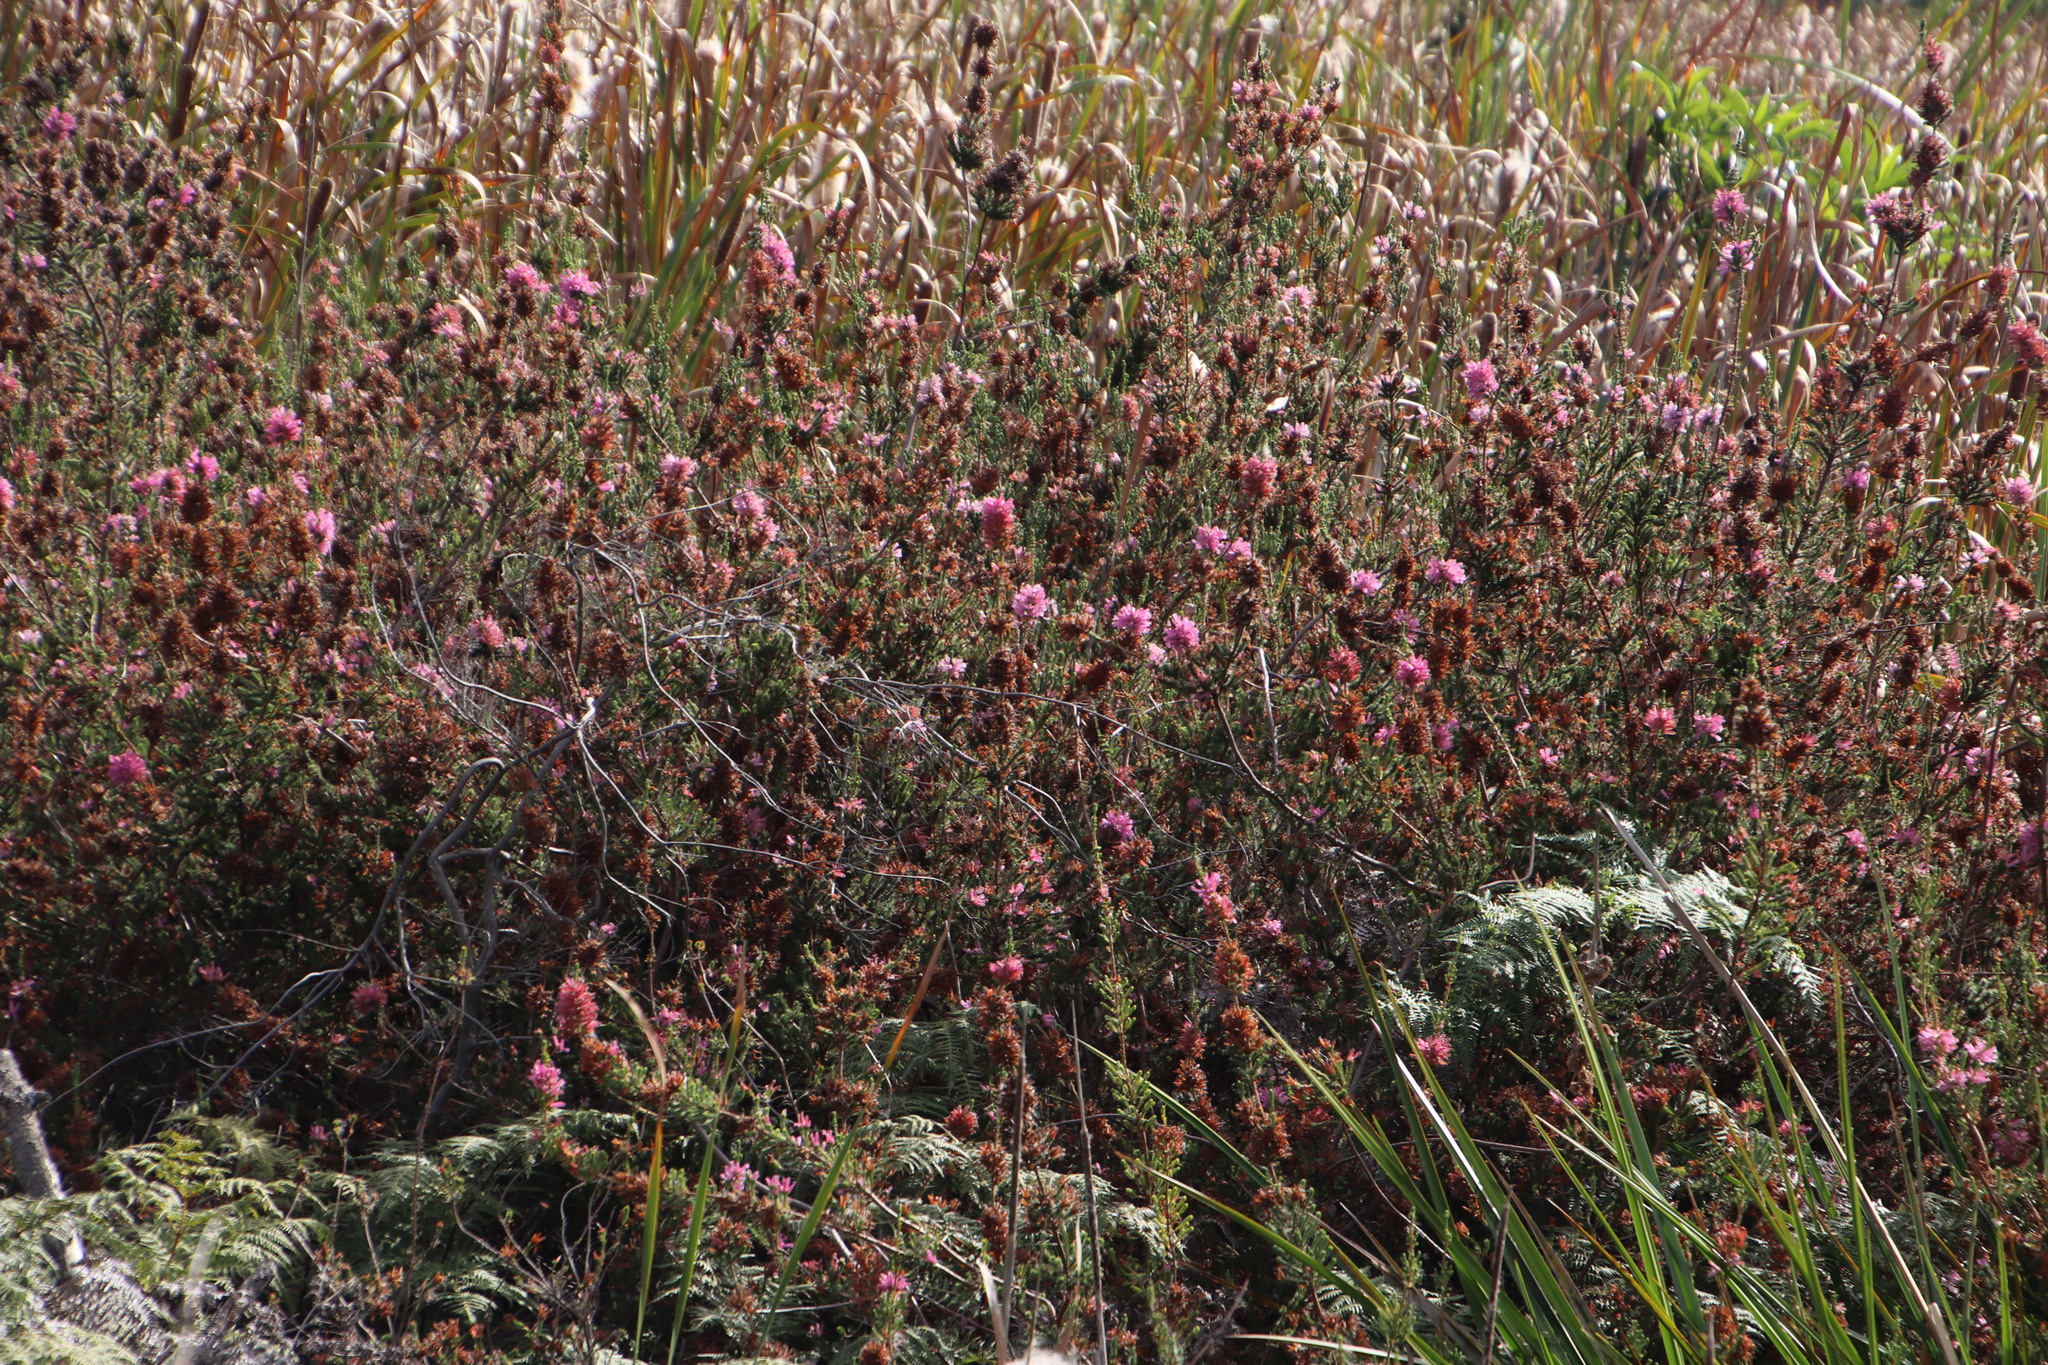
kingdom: Plantae
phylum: Tracheophyta
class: Magnoliopsida
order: Ericales
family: Ericaceae
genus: Erica
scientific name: Erica verticillata
